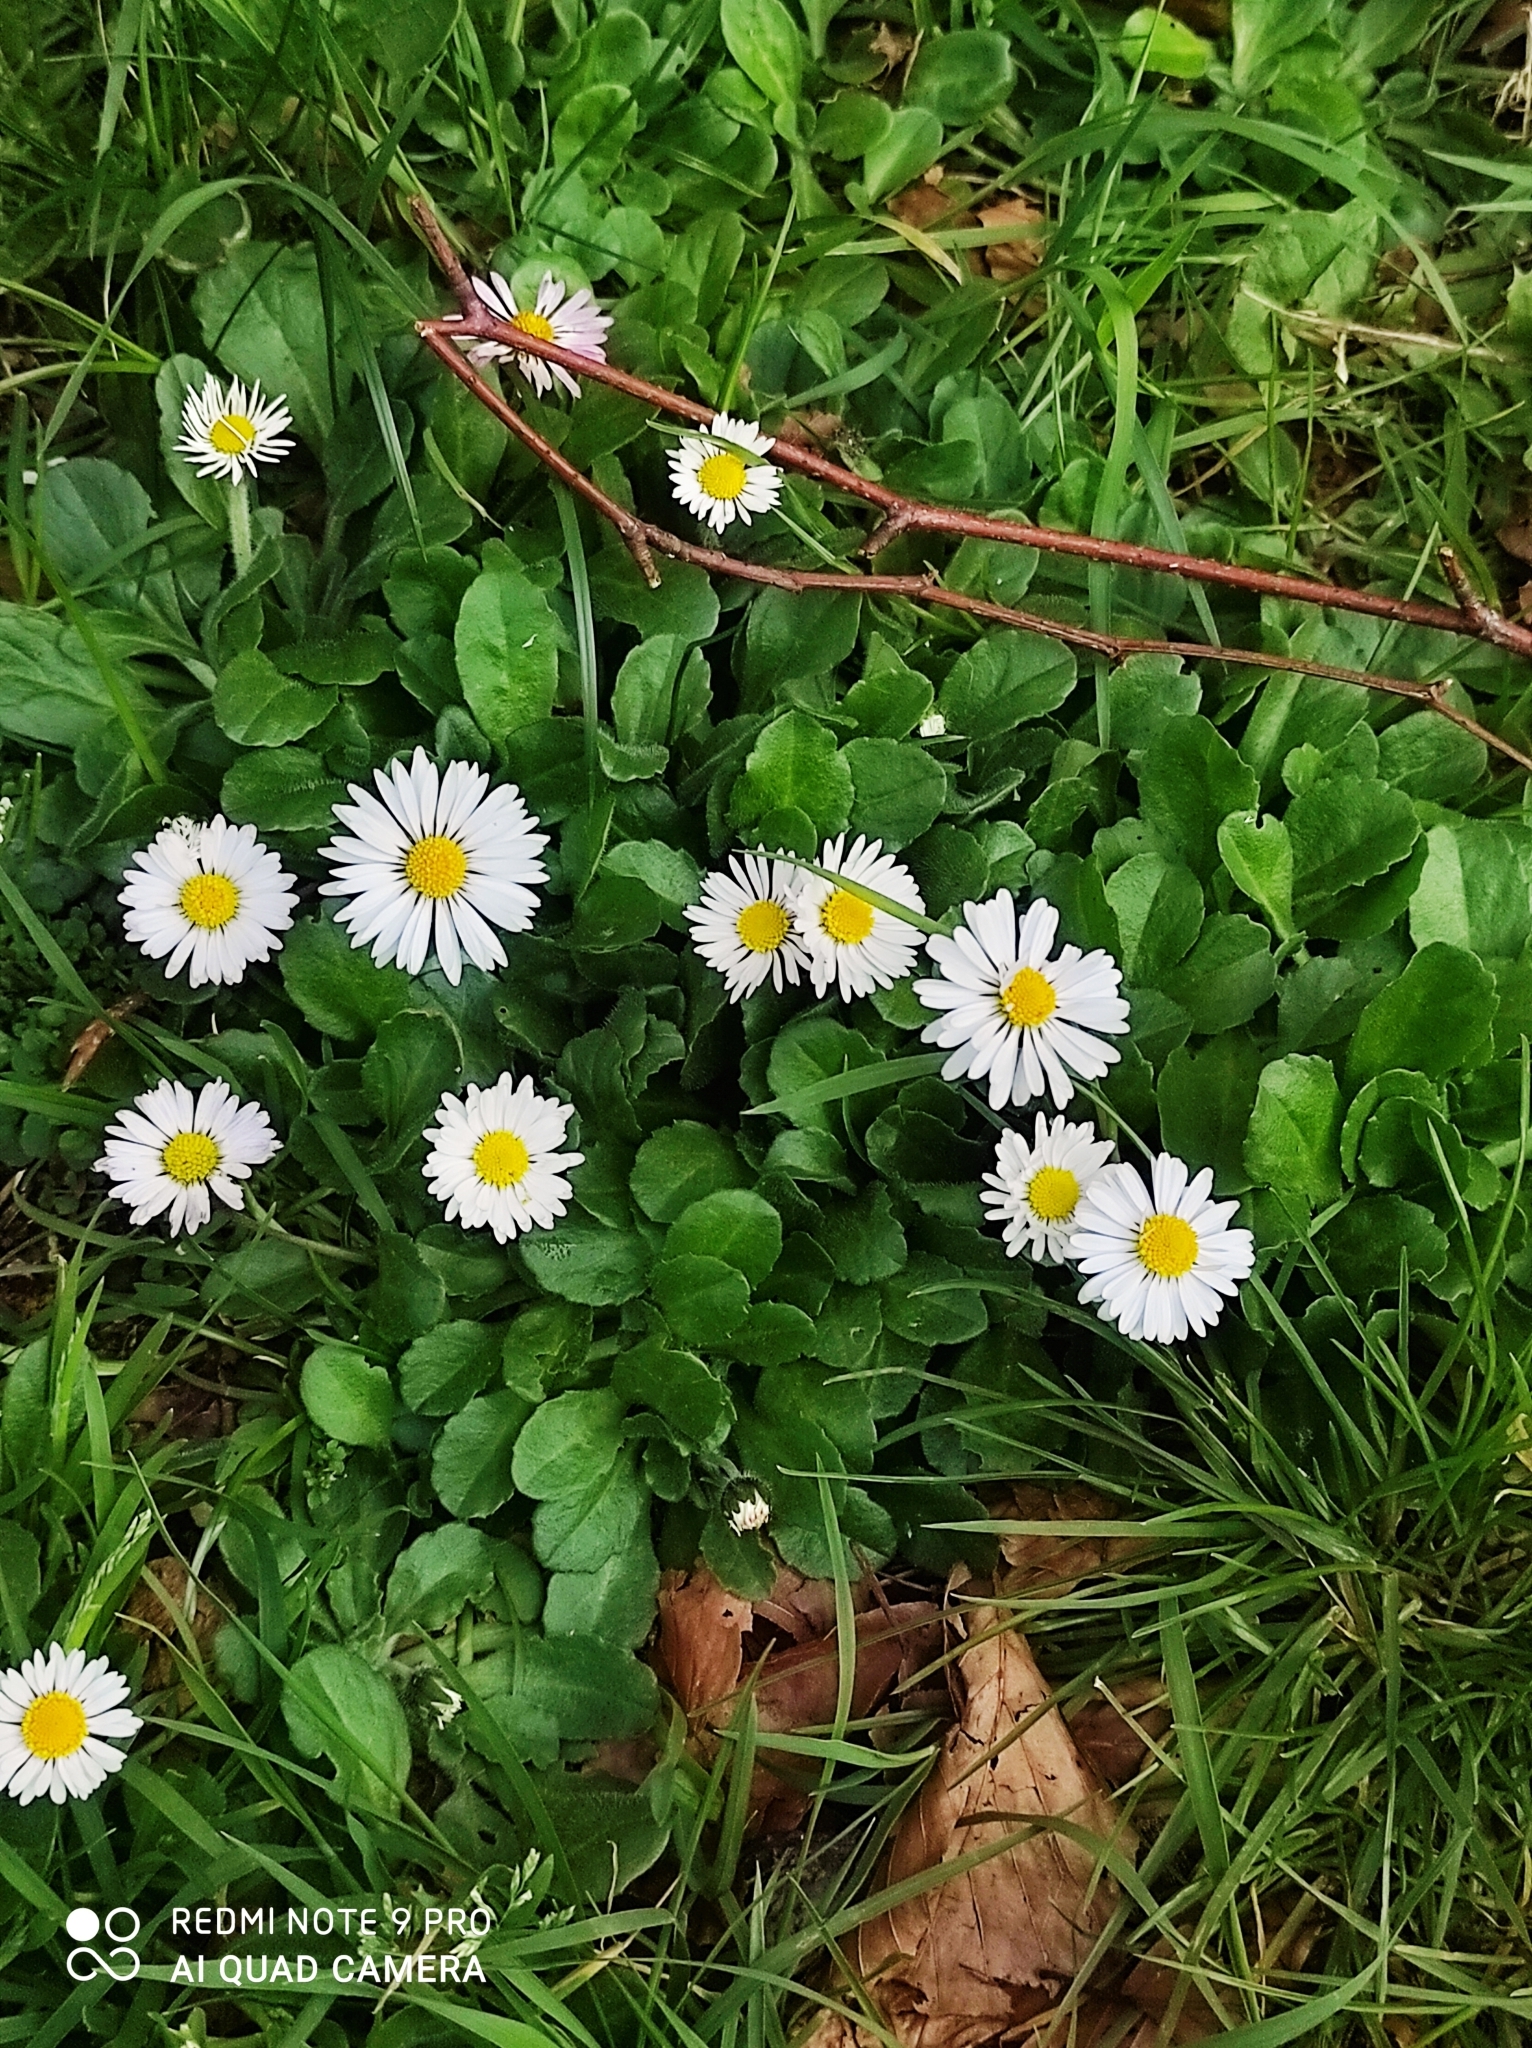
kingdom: Plantae
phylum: Tracheophyta
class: Magnoliopsida
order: Asterales
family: Asteraceae
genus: Bellis
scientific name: Bellis perennis
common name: Lawndaisy
